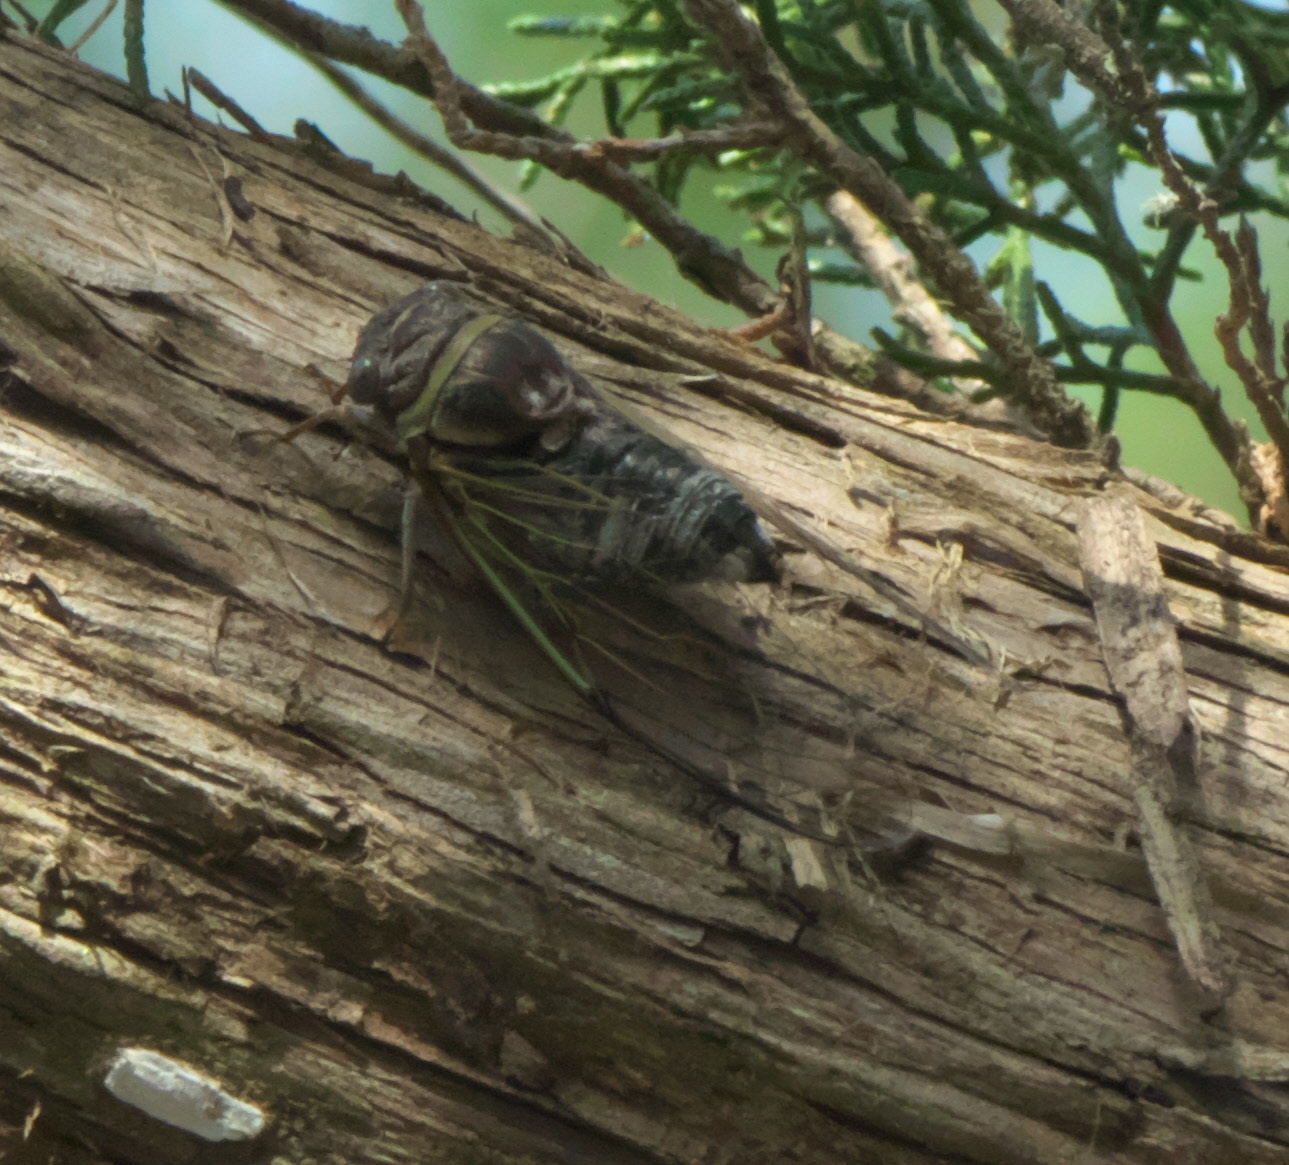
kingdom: Animalia
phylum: Arthropoda
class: Insecta
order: Hemiptera
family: Cicadidae
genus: Diceroprocta
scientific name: Diceroprocta viridifascia
